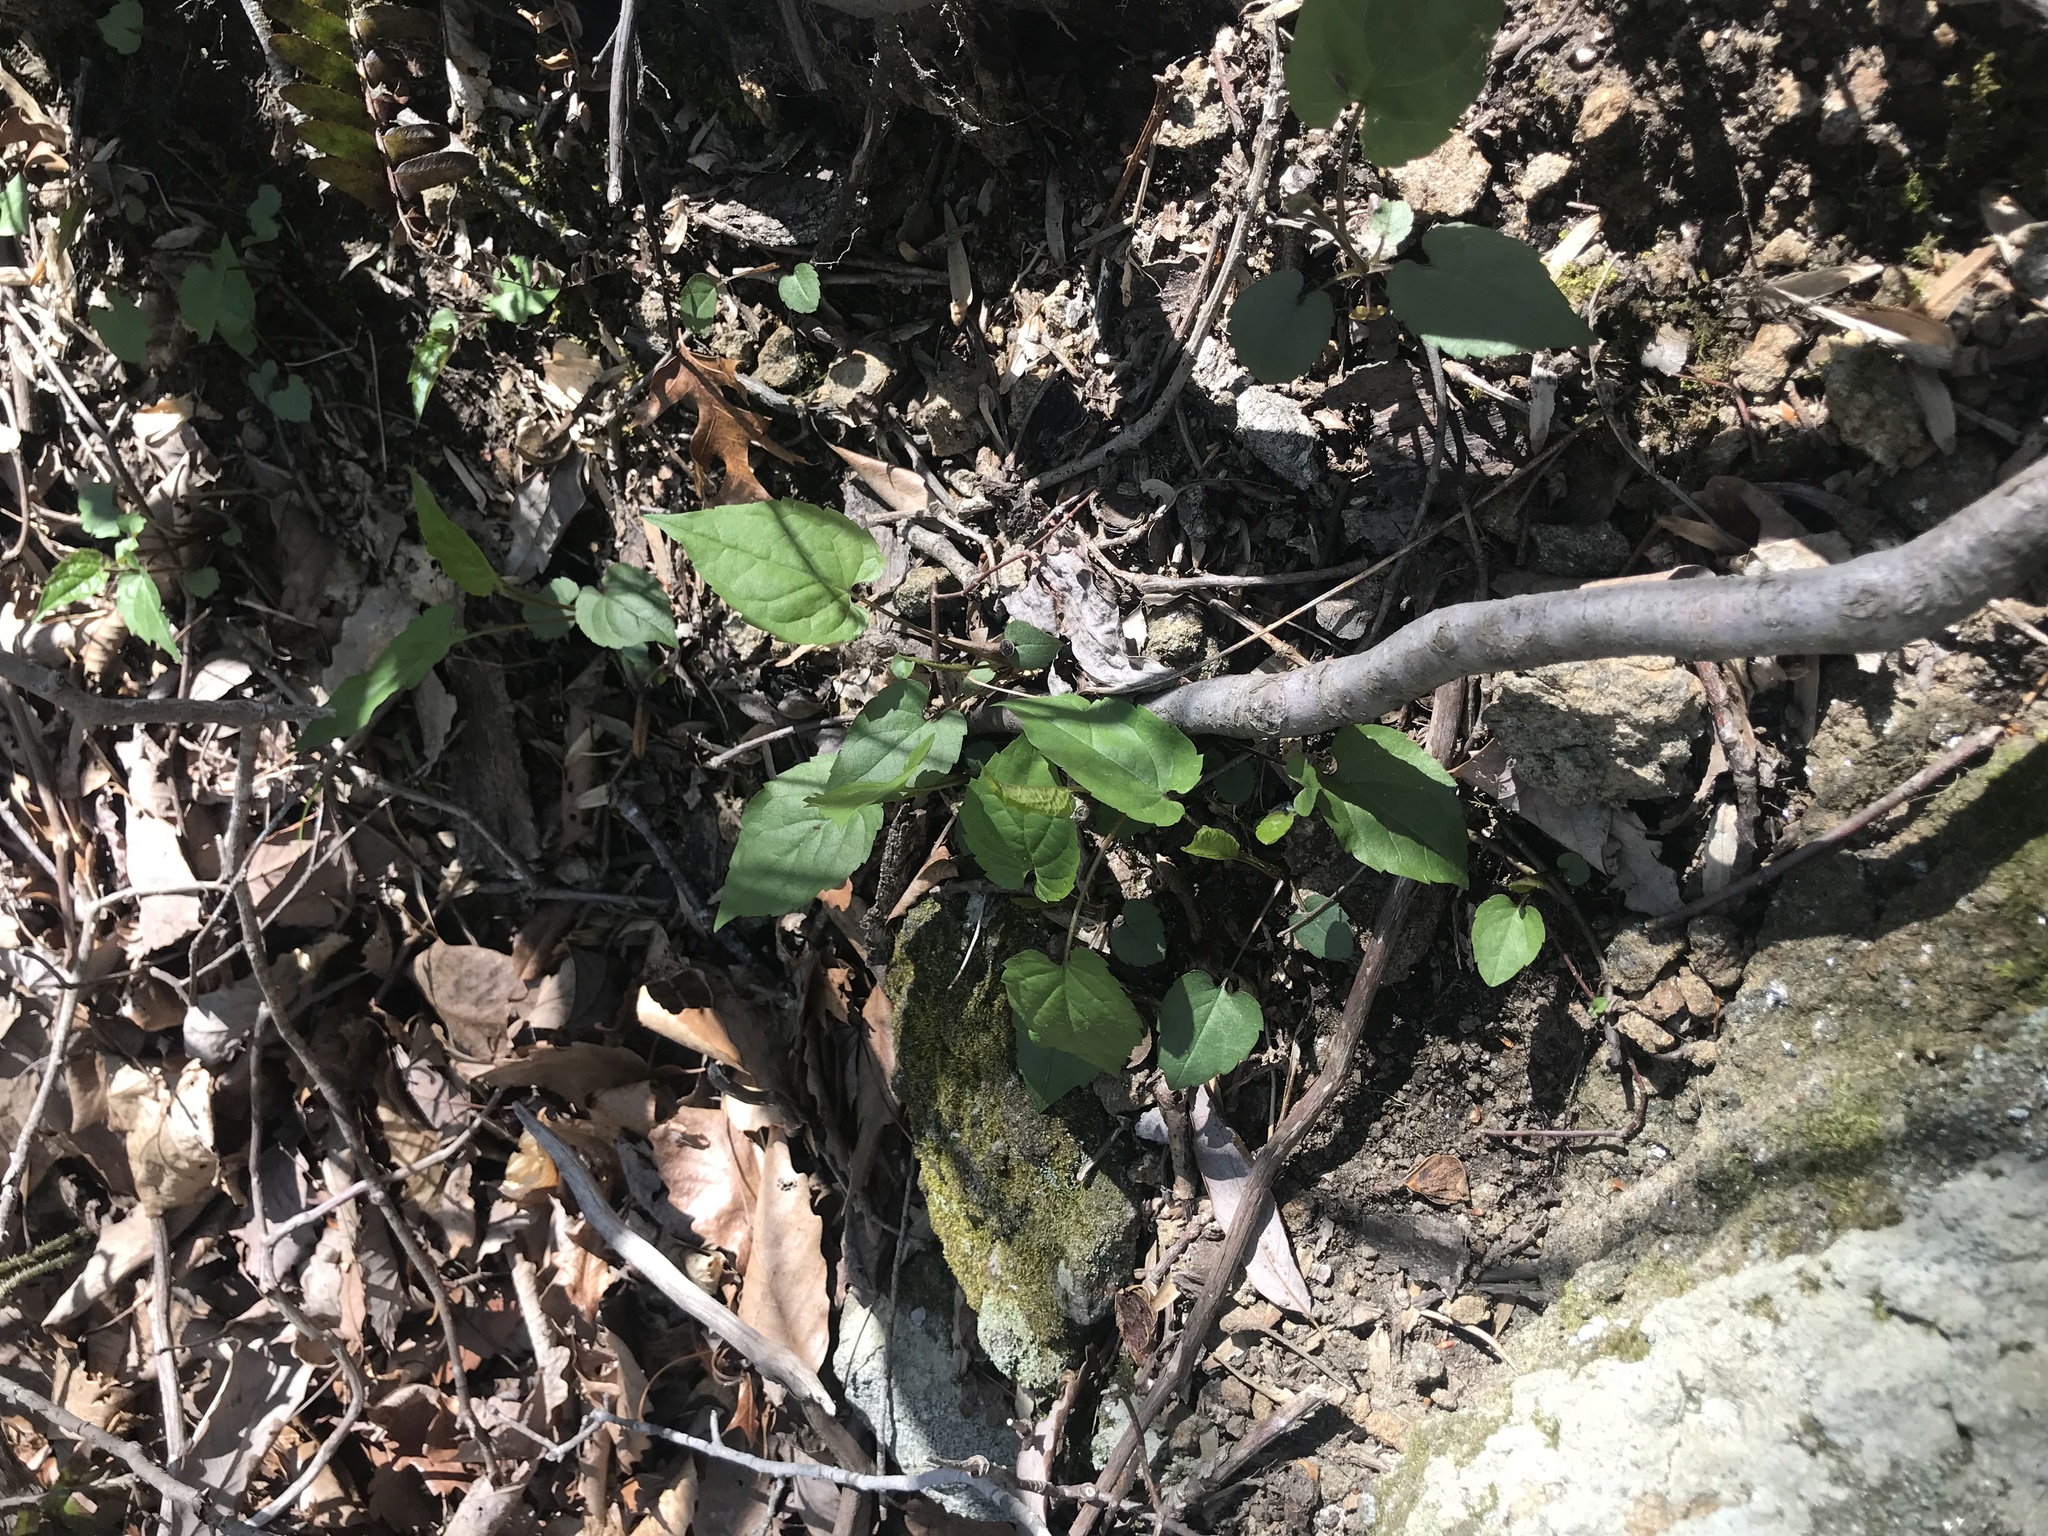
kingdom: Plantae
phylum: Tracheophyta
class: Magnoliopsida
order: Asterales
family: Asteraceae
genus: Symphyotrichum
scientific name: Symphyotrichum cordifolium
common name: Beeweed
